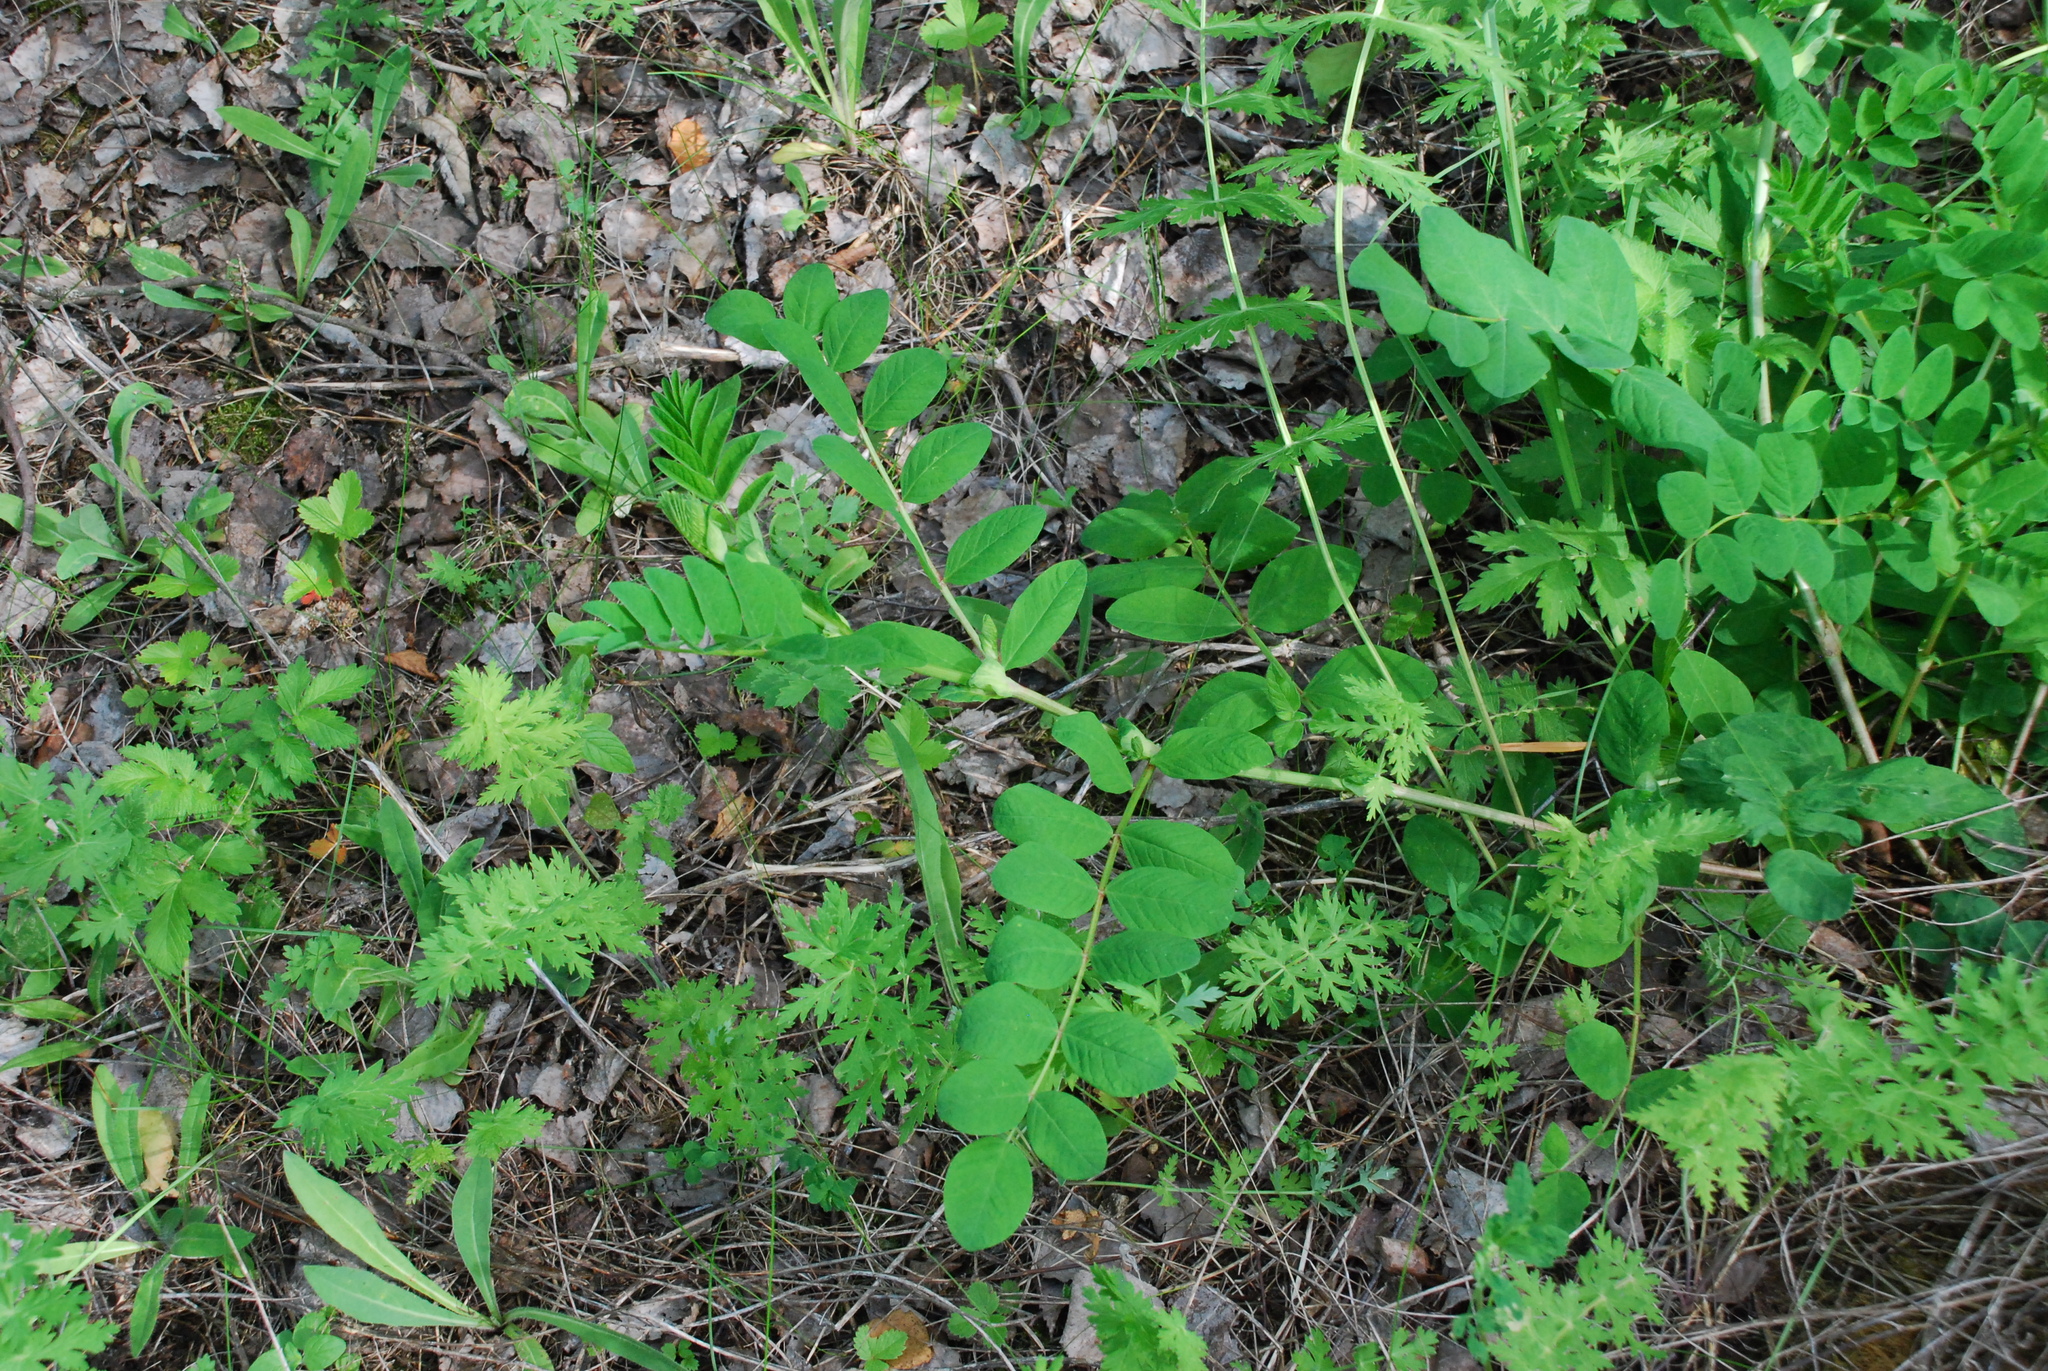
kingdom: Plantae
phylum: Tracheophyta
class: Magnoliopsida
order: Fabales
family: Fabaceae
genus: Astragalus
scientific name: Astragalus glycyphyllos
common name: Wild liquorice
